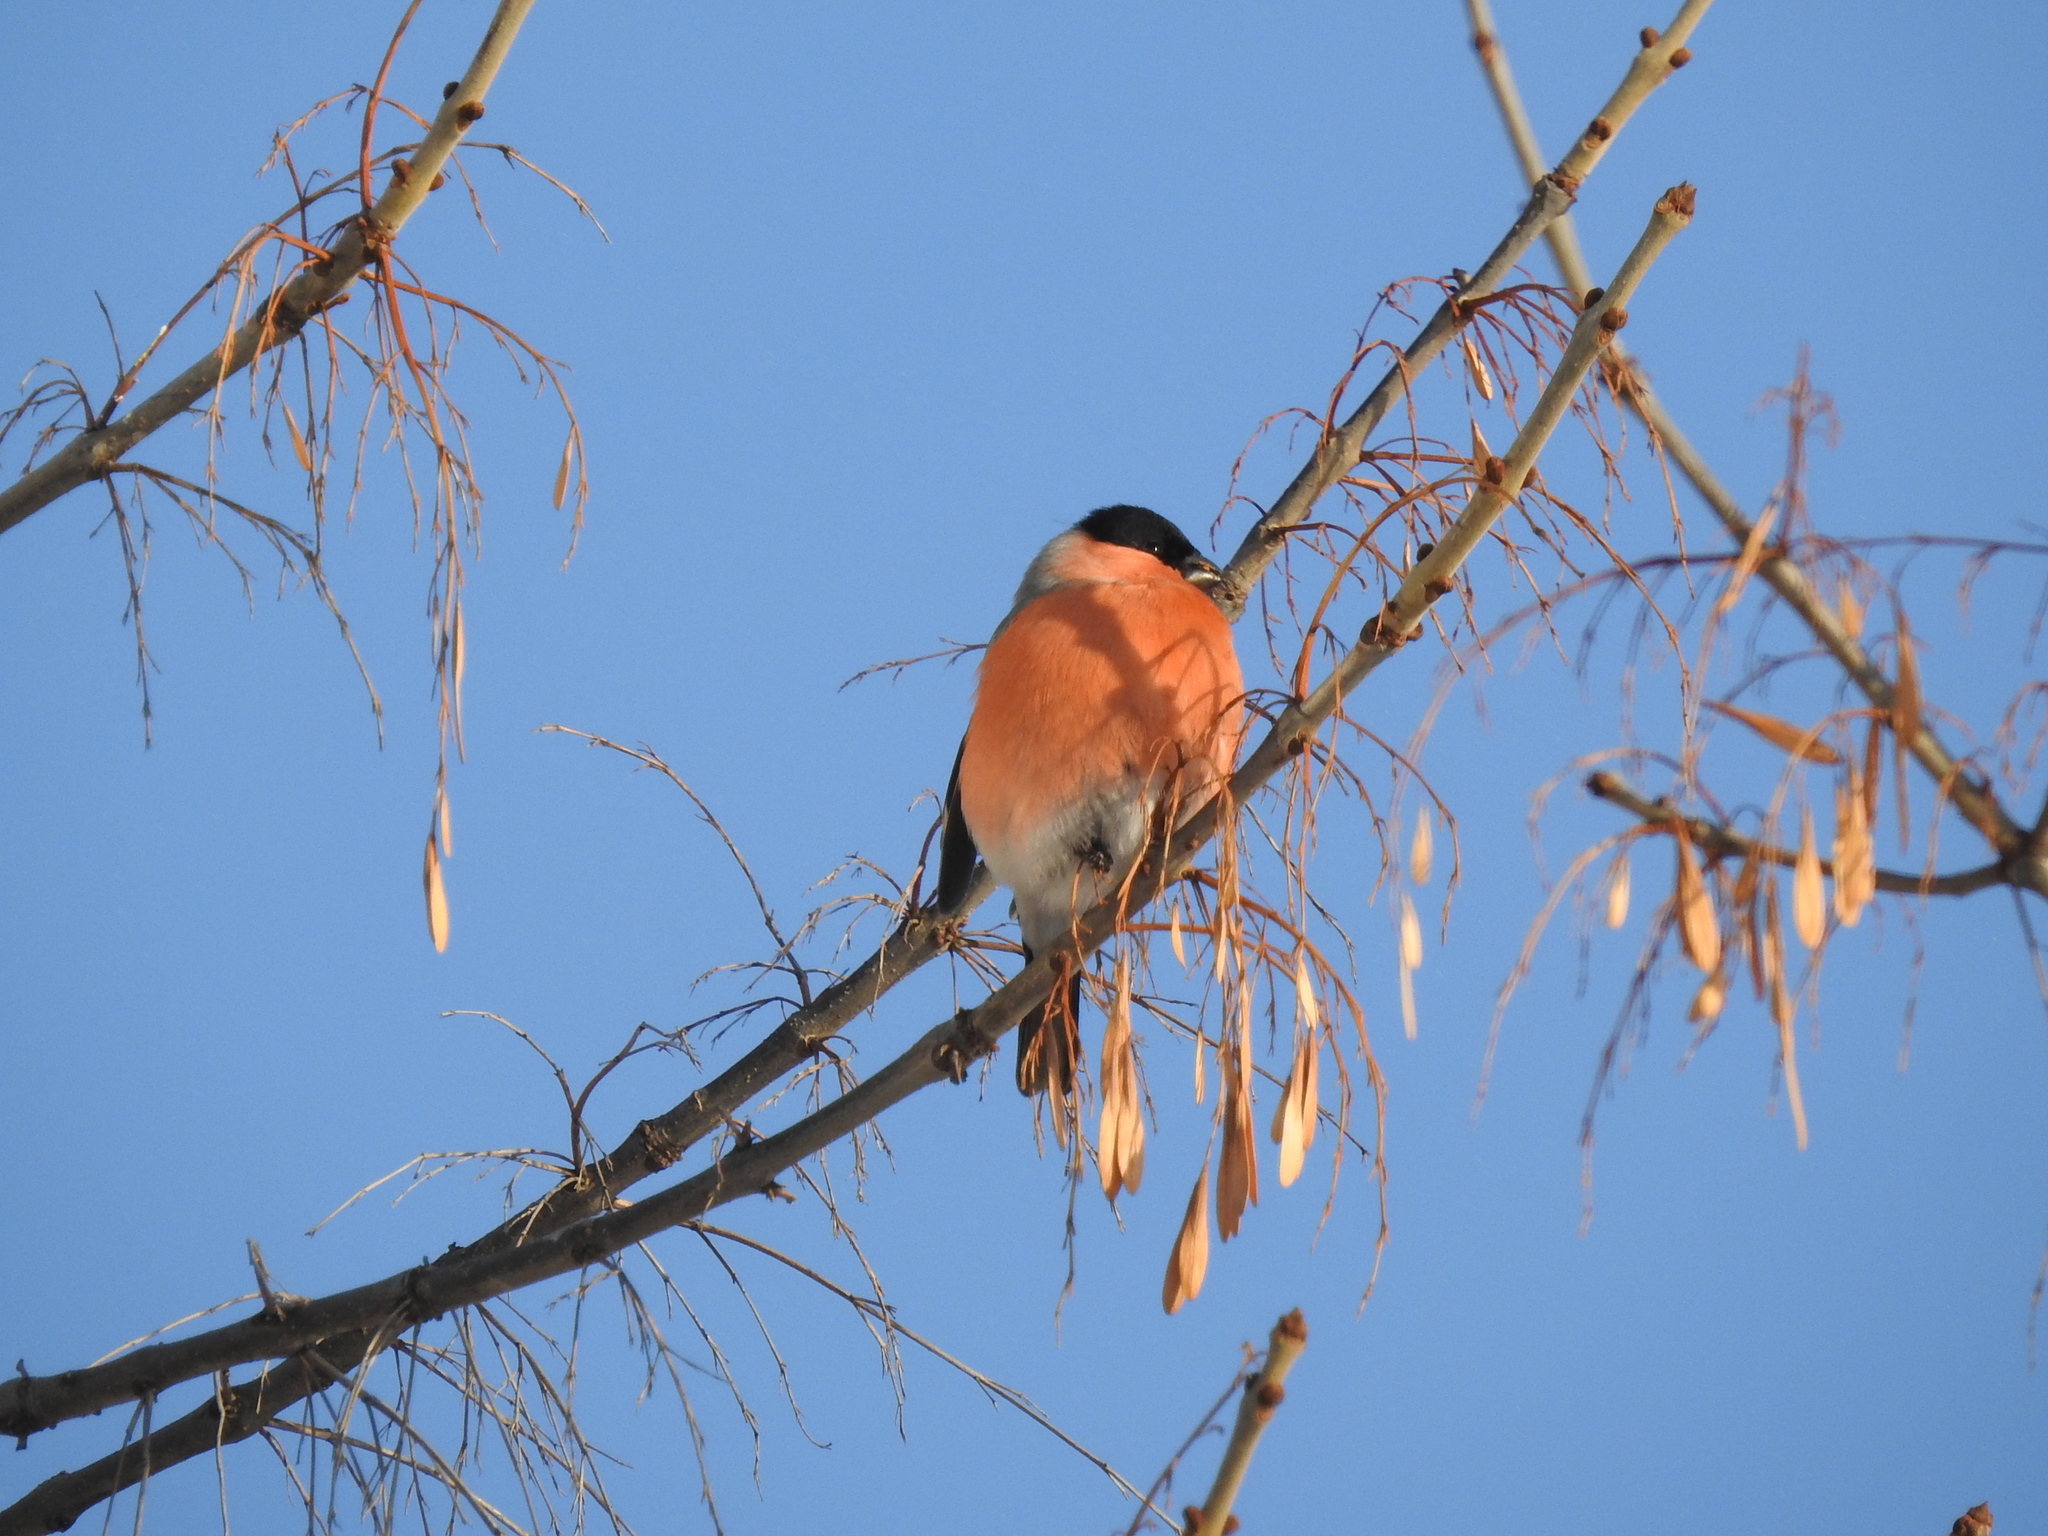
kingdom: Animalia
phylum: Chordata
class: Aves
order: Passeriformes
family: Fringillidae
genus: Pyrrhula
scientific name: Pyrrhula pyrrhula
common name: Eurasian bullfinch
